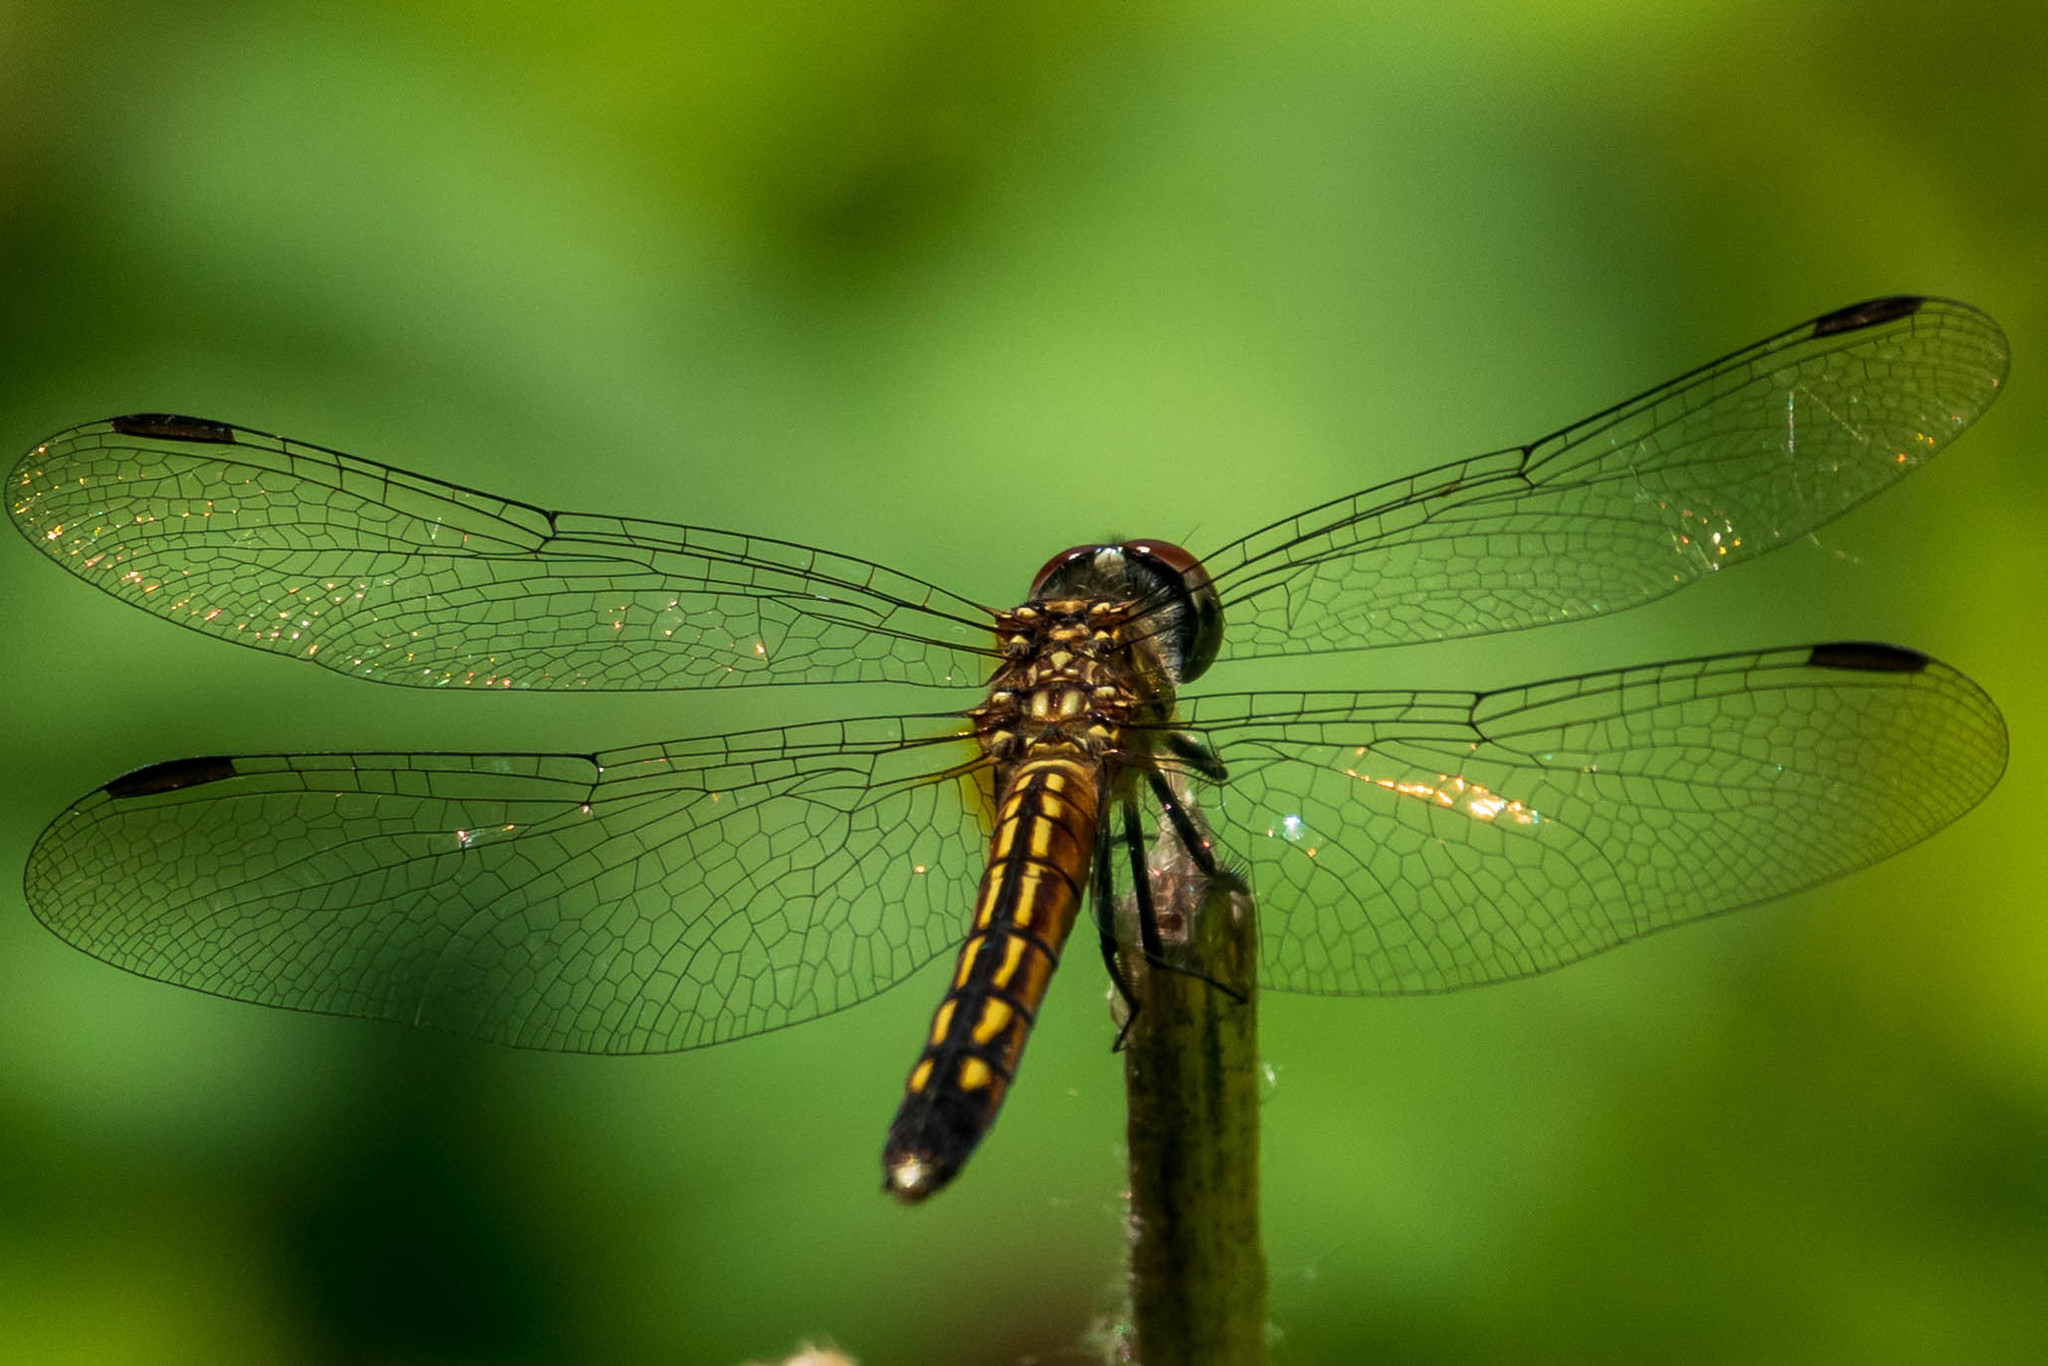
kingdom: Animalia
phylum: Arthropoda
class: Insecta
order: Odonata
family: Libellulidae
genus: Pachydiplax
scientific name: Pachydiplax longipennis
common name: Blue dasher
